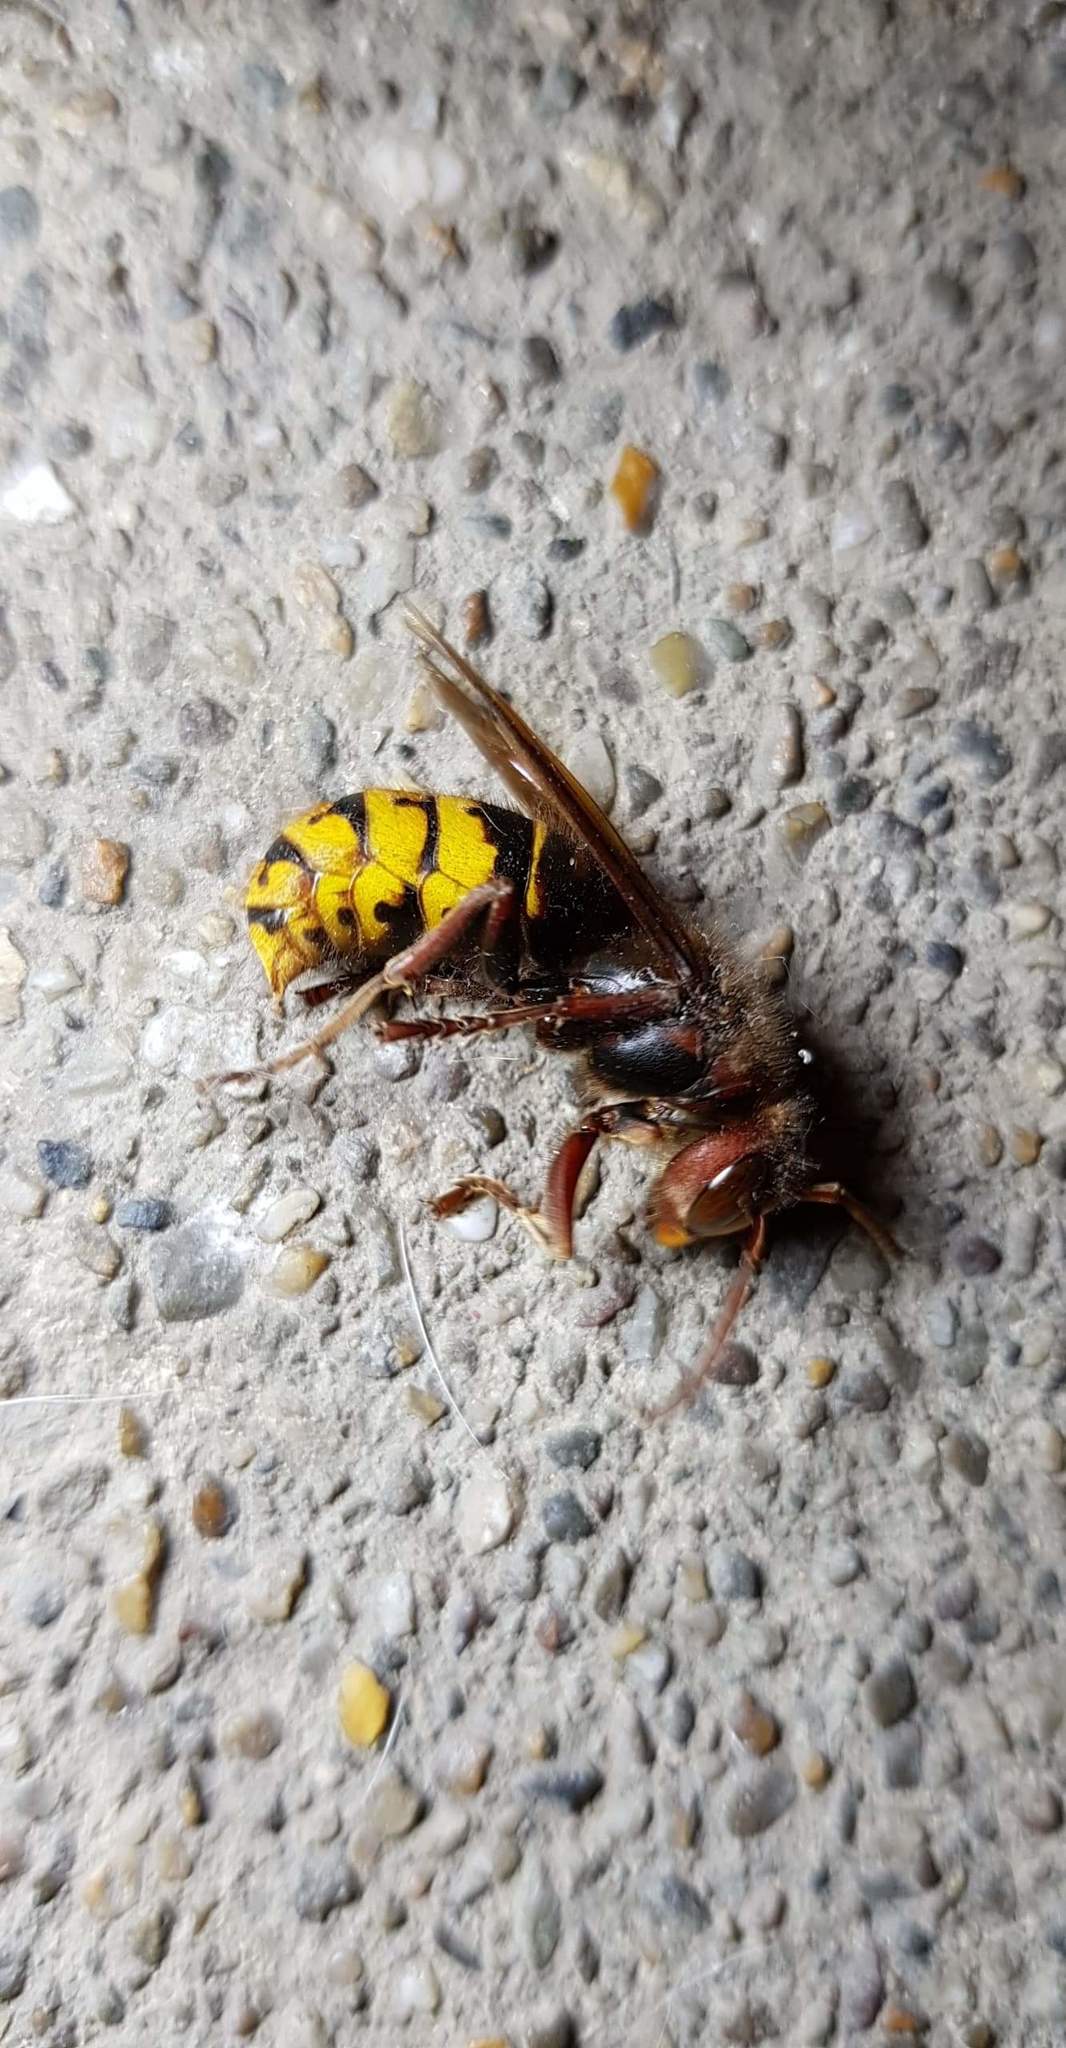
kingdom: Animalia
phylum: Arthropoda
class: Insecta
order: Hymenoptera
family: Vespidae
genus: Vespa
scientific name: Vespa crabro
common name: Hornet
